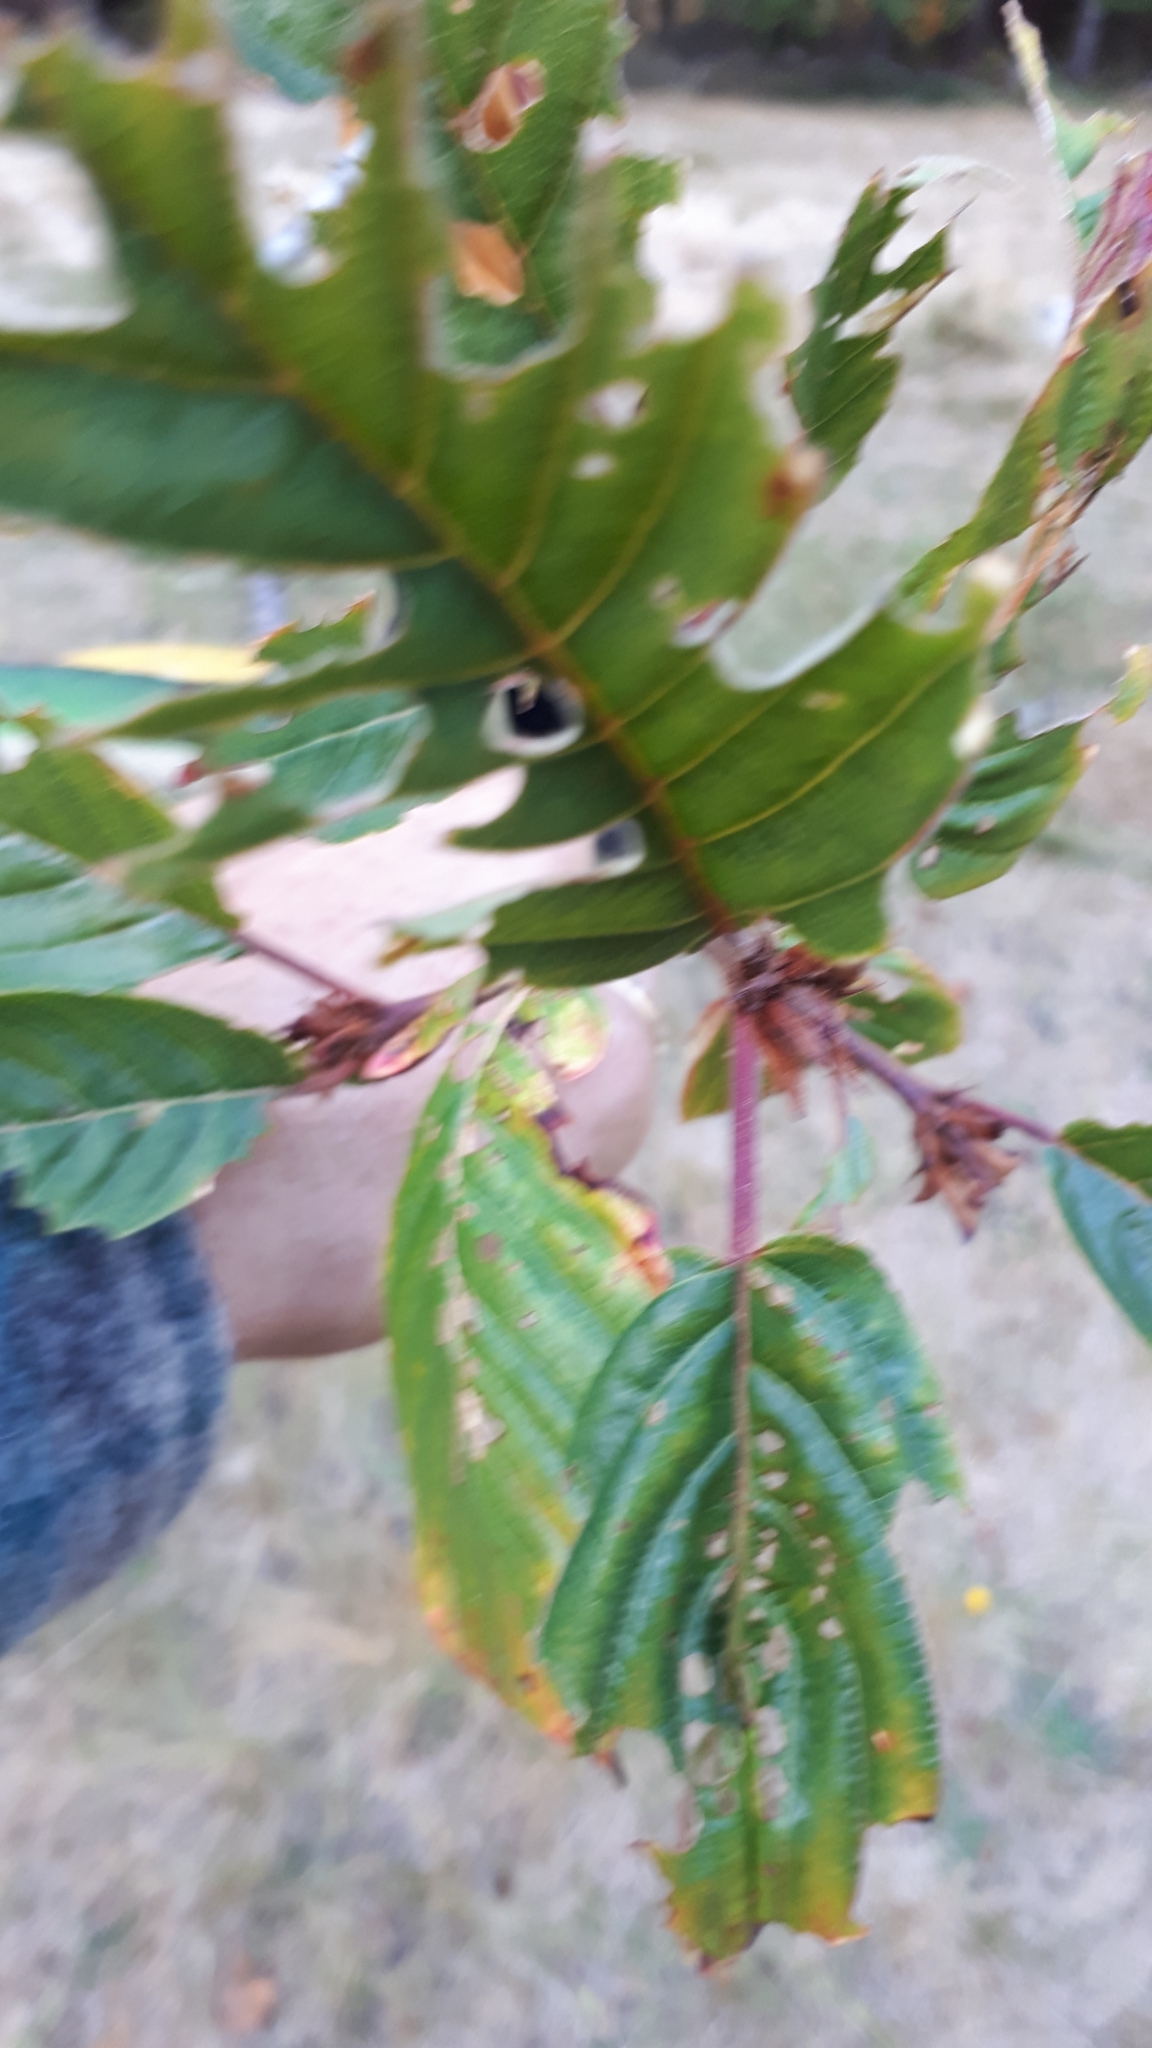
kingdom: Plantae
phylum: Tracheophyta
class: Magnoliopsida
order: Rosales
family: Rhamnaceae
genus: Frangula
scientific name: Frangula purshiana
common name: Cascara buckthorn
